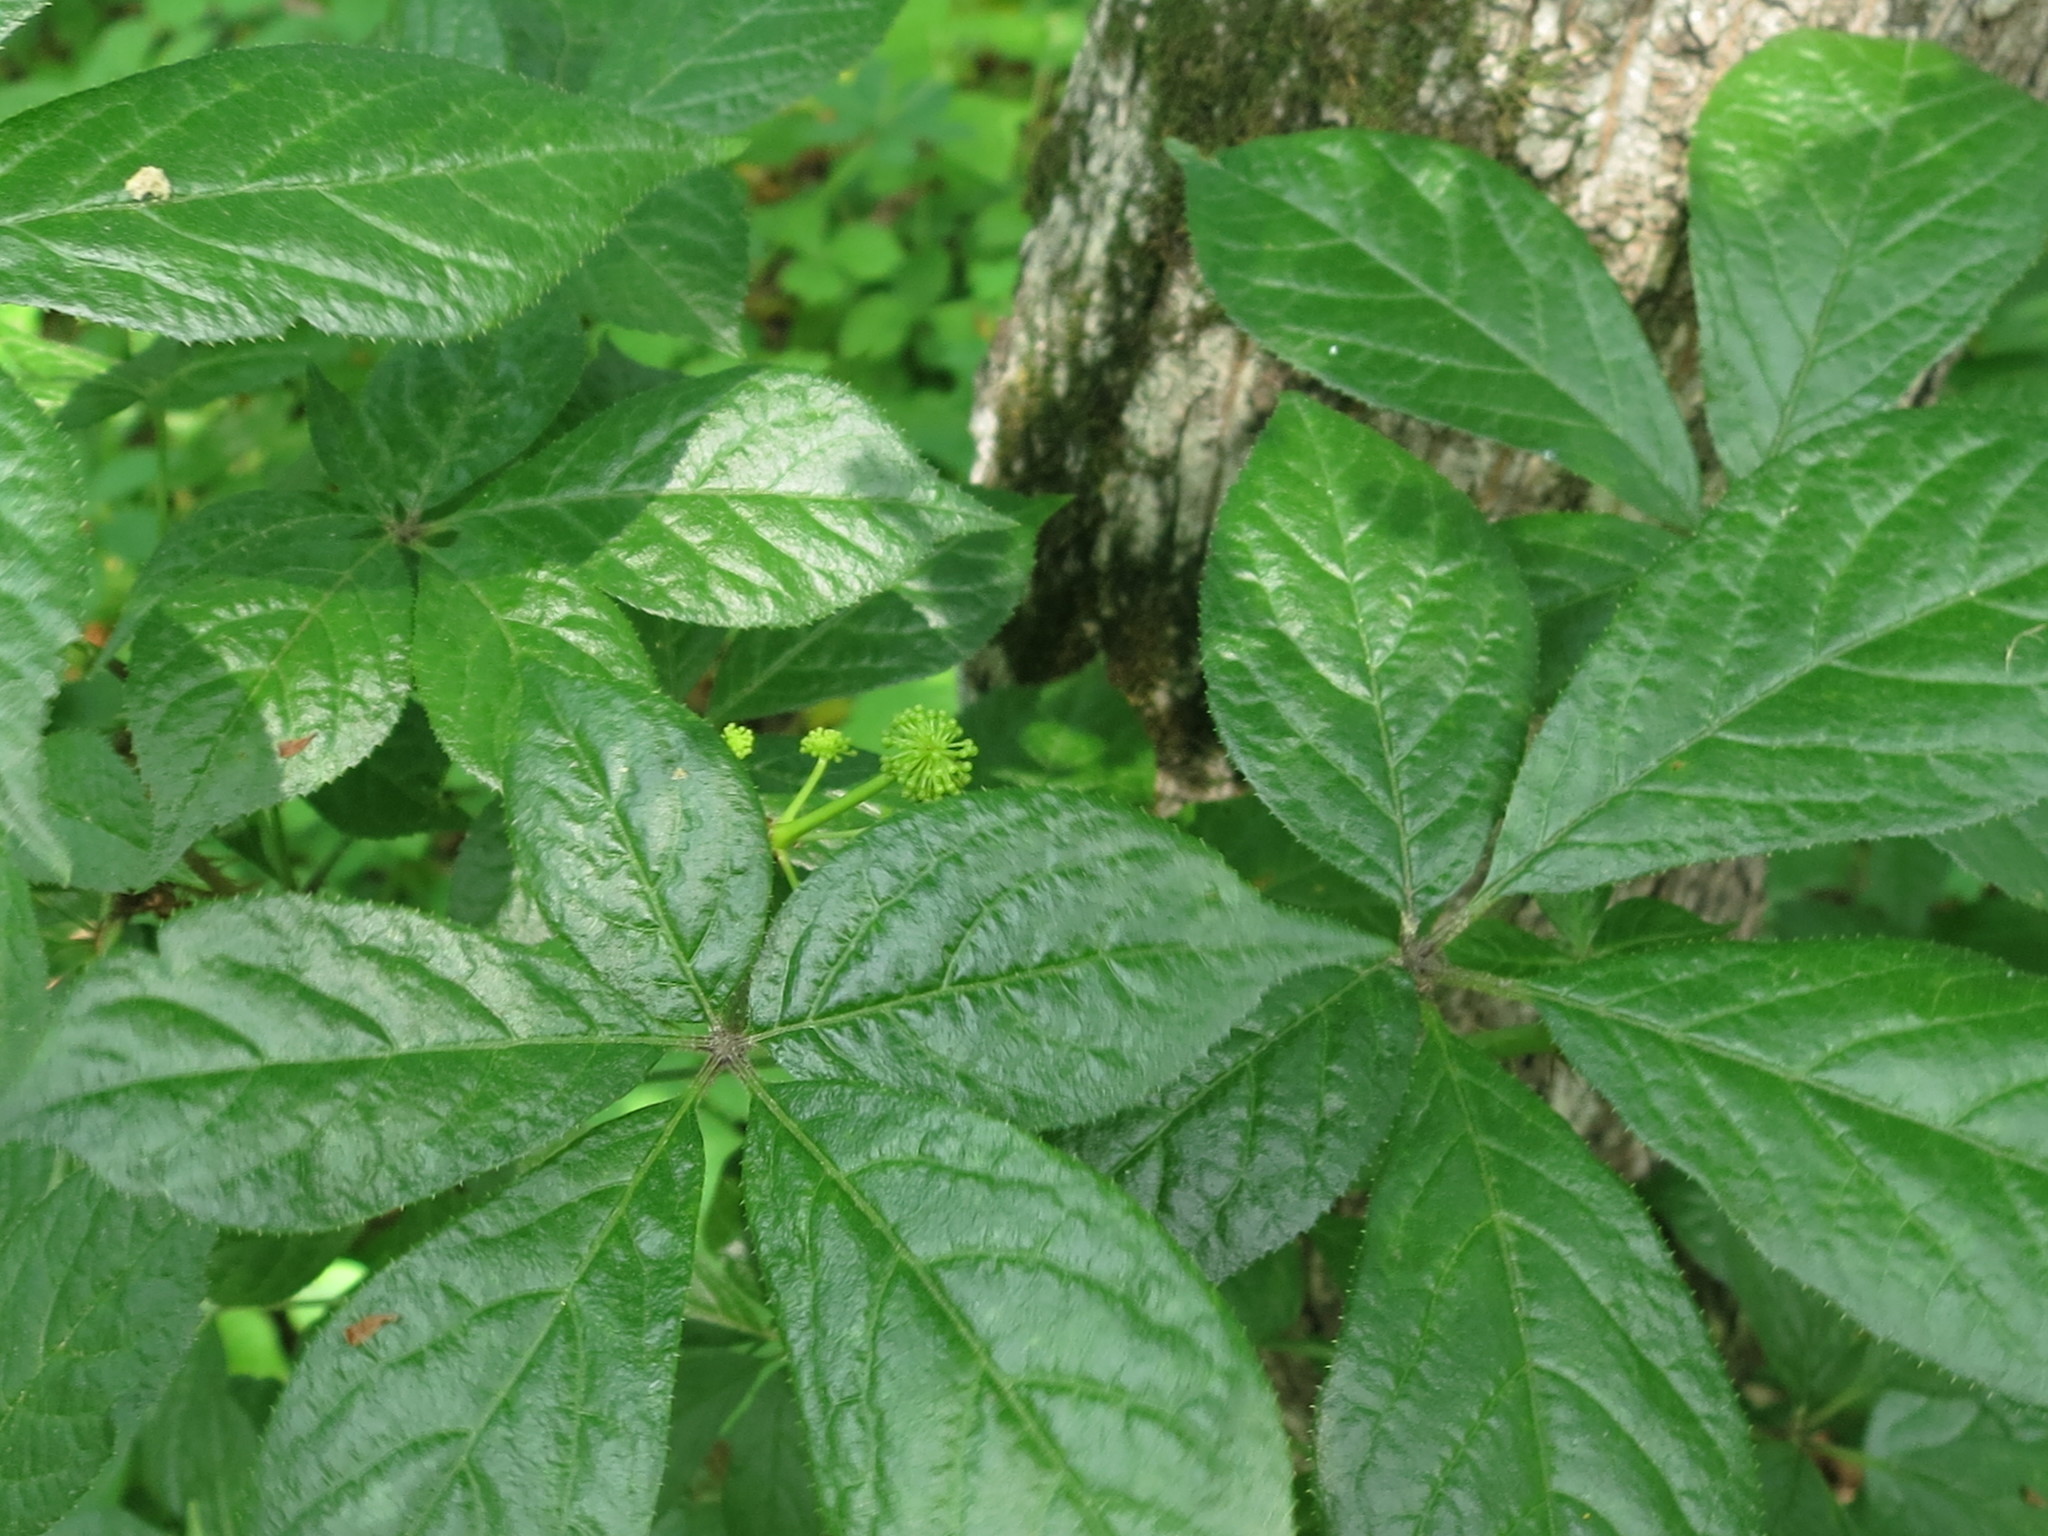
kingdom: Plantae
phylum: Tracheophyta
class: Magnoliopsida
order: Apiales
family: Araliaceae
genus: Eleutherococcus
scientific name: Eleutherococcus senticosus
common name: Siberian-ginseng
